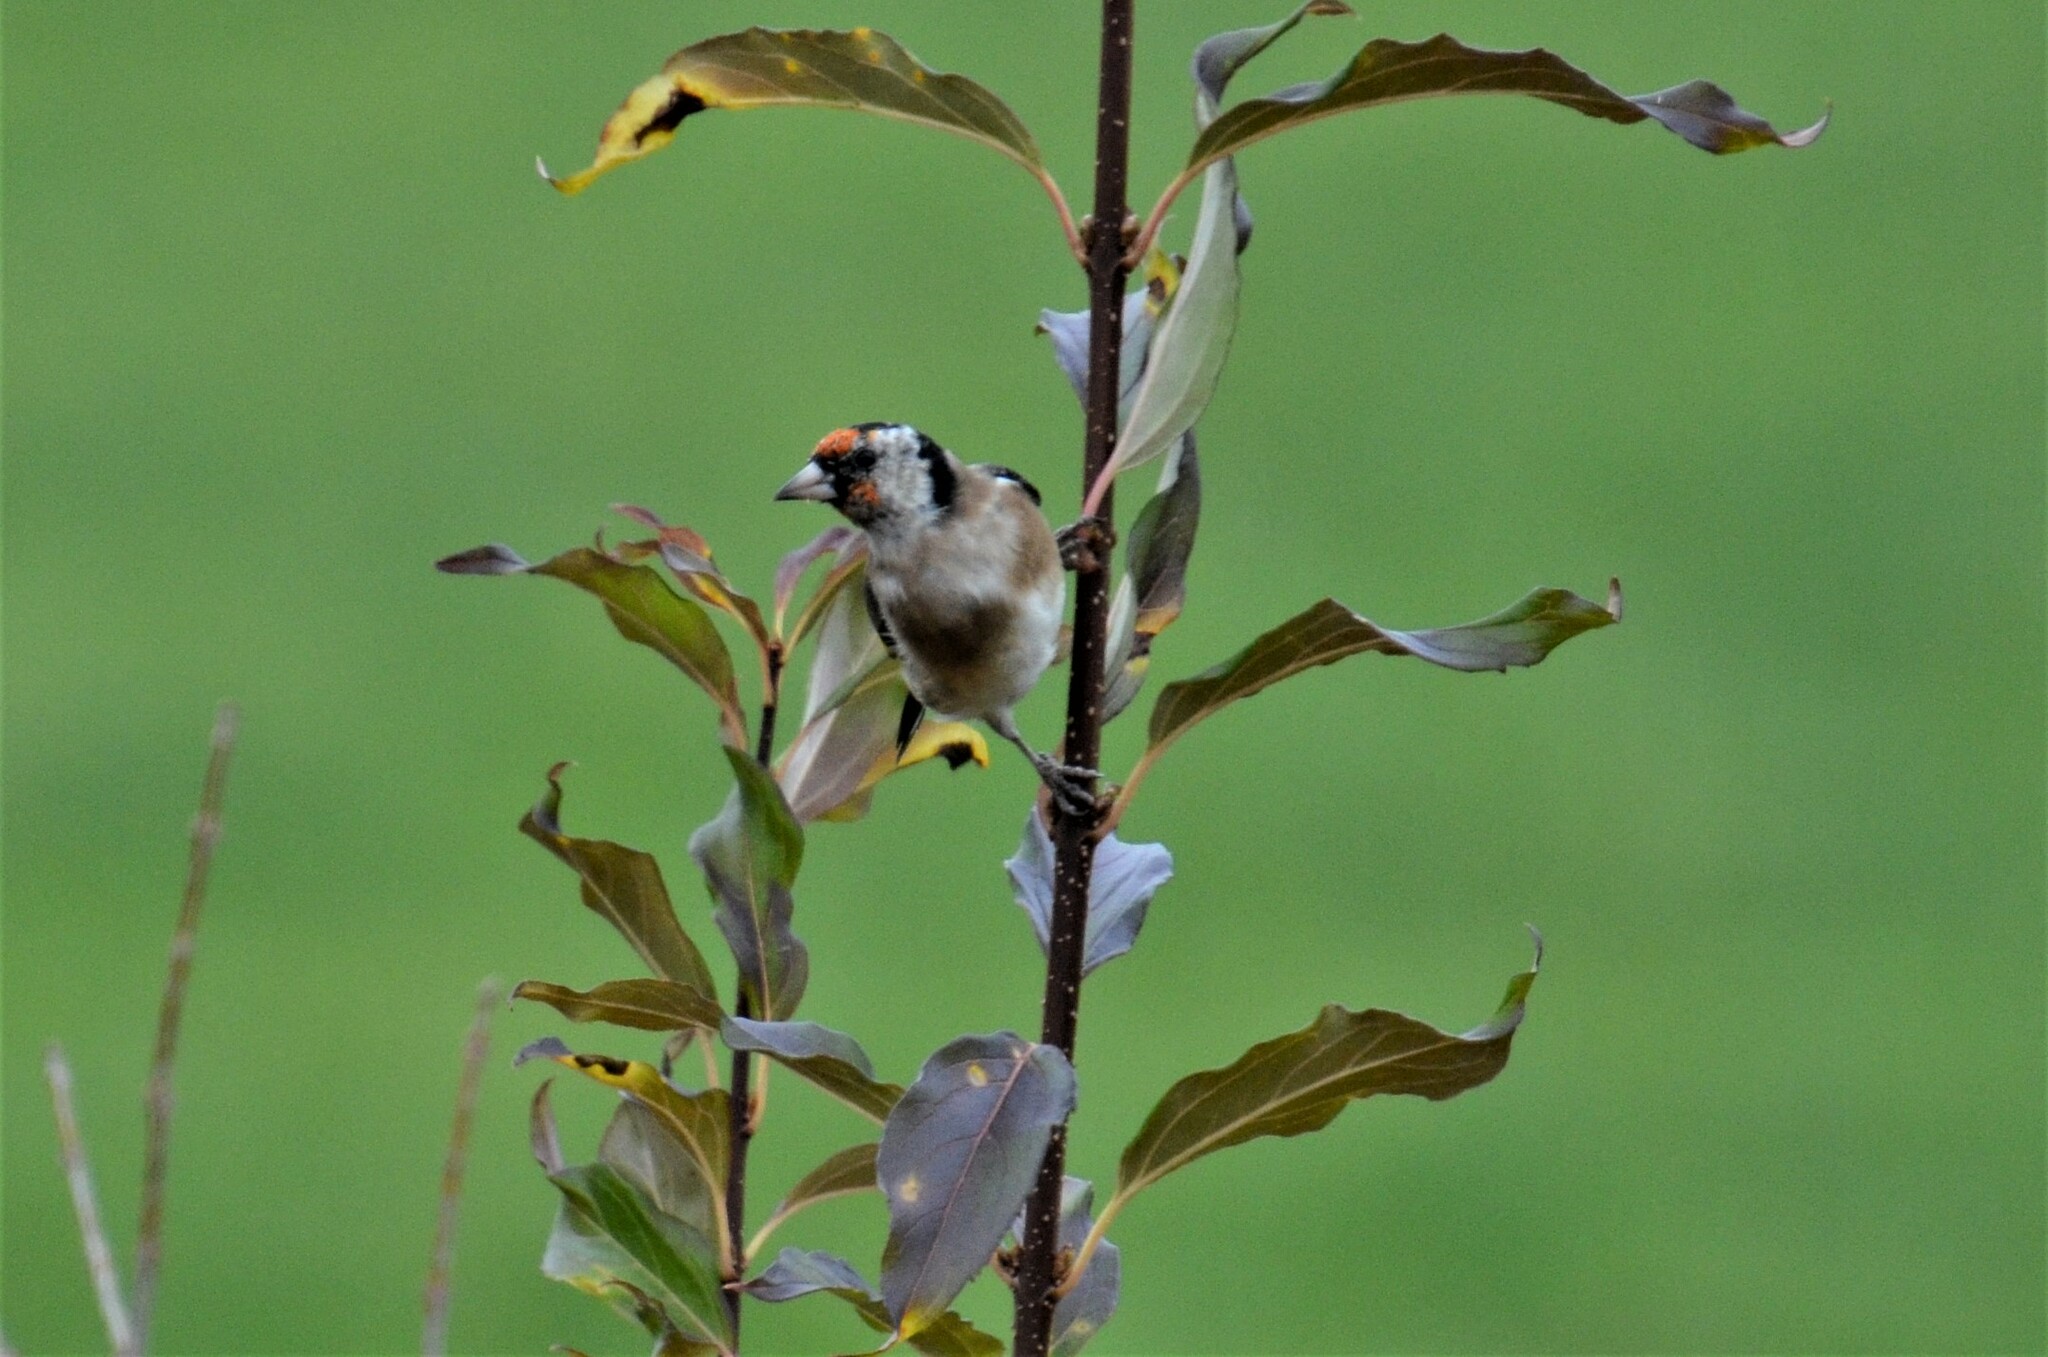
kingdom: Animalia
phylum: Chordata
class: Aves
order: Passeriformes
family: Fringillidae
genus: Carduelis
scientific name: Carduelis carduelis
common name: European goldfinch
